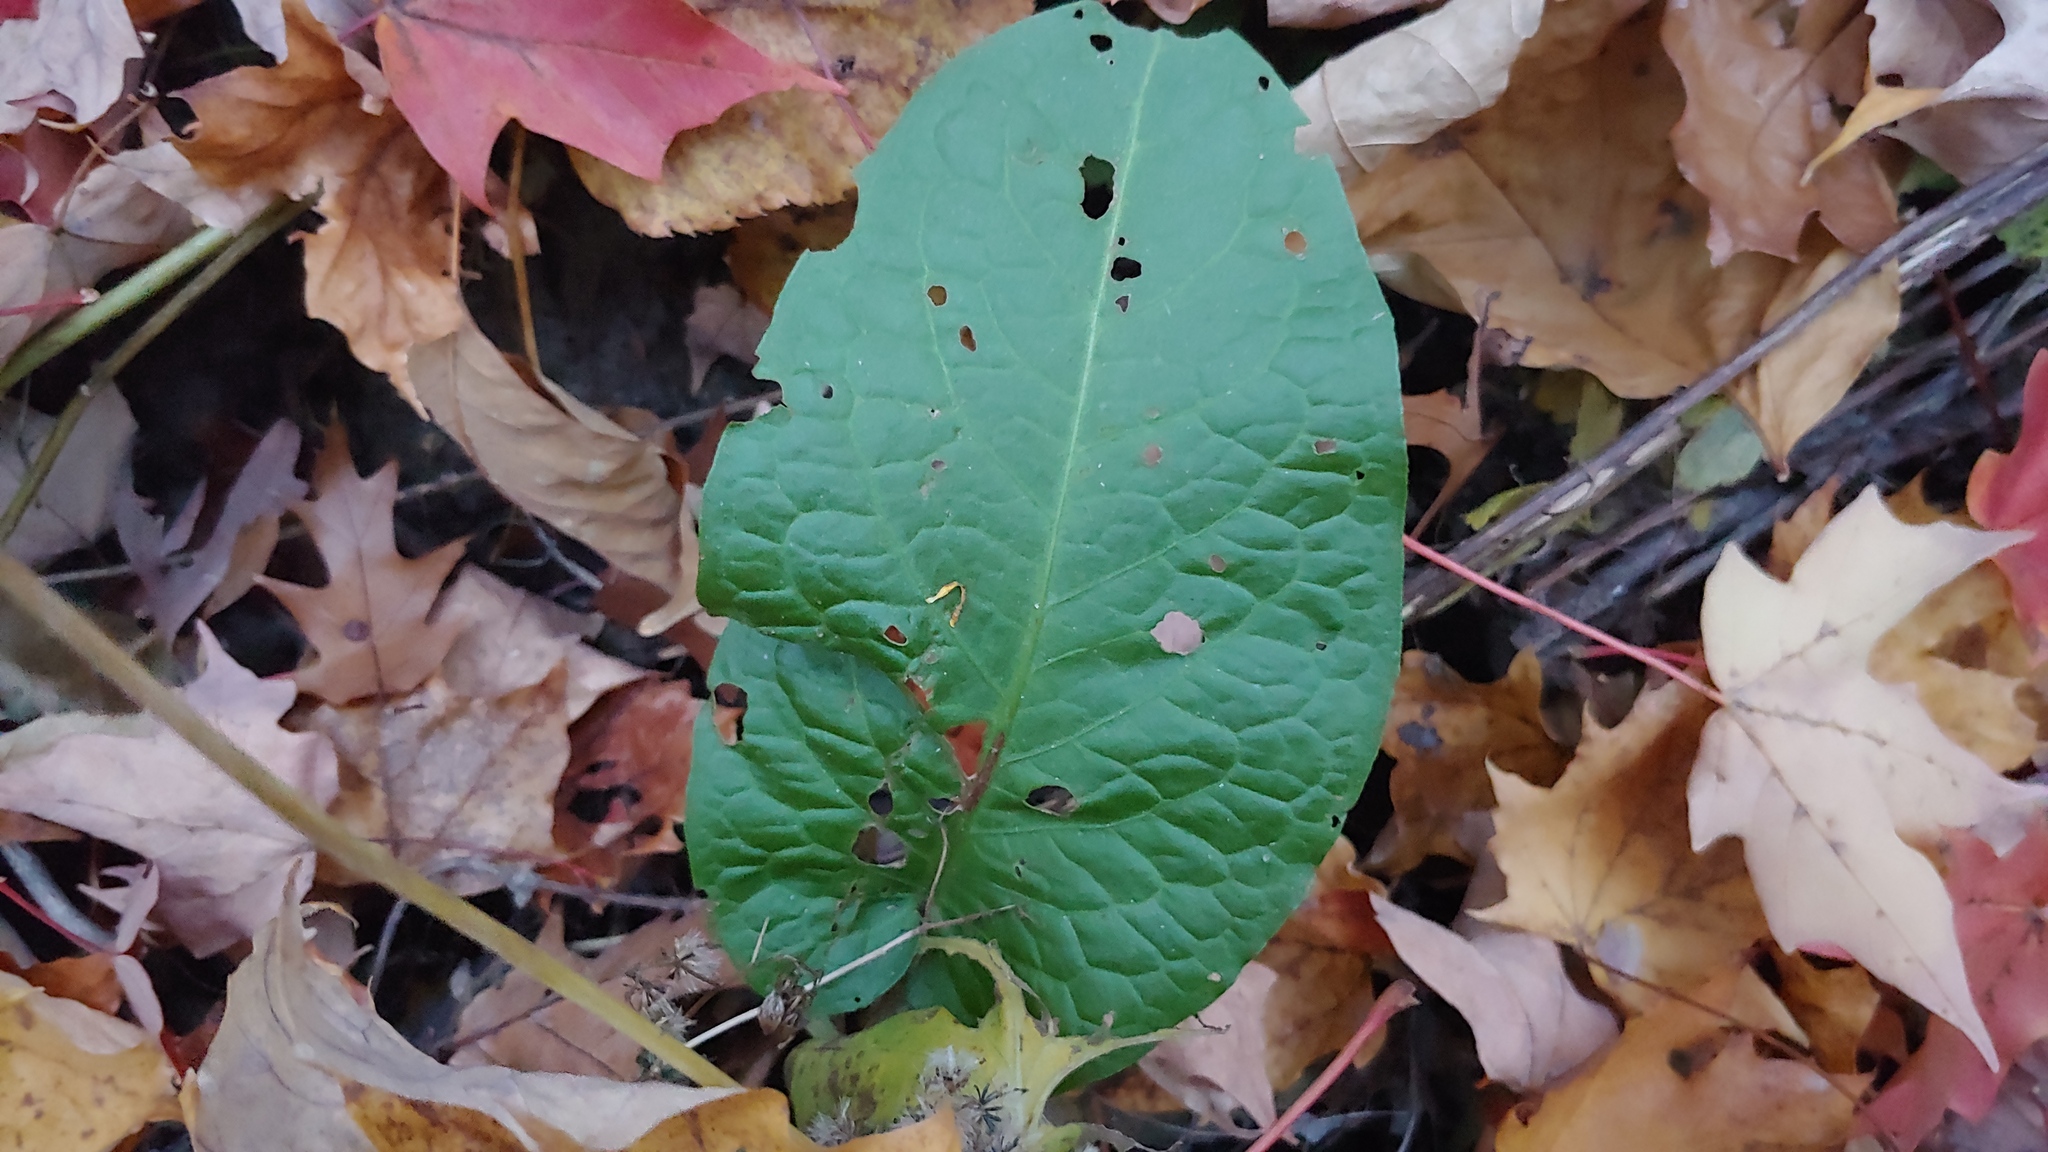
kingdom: Plantae
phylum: Tracheophyta
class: Magnoliopsida
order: Caryophyllales
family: Polygonaceae
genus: Rumex
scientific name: Rumex obtusifolius
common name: Bitter dock
